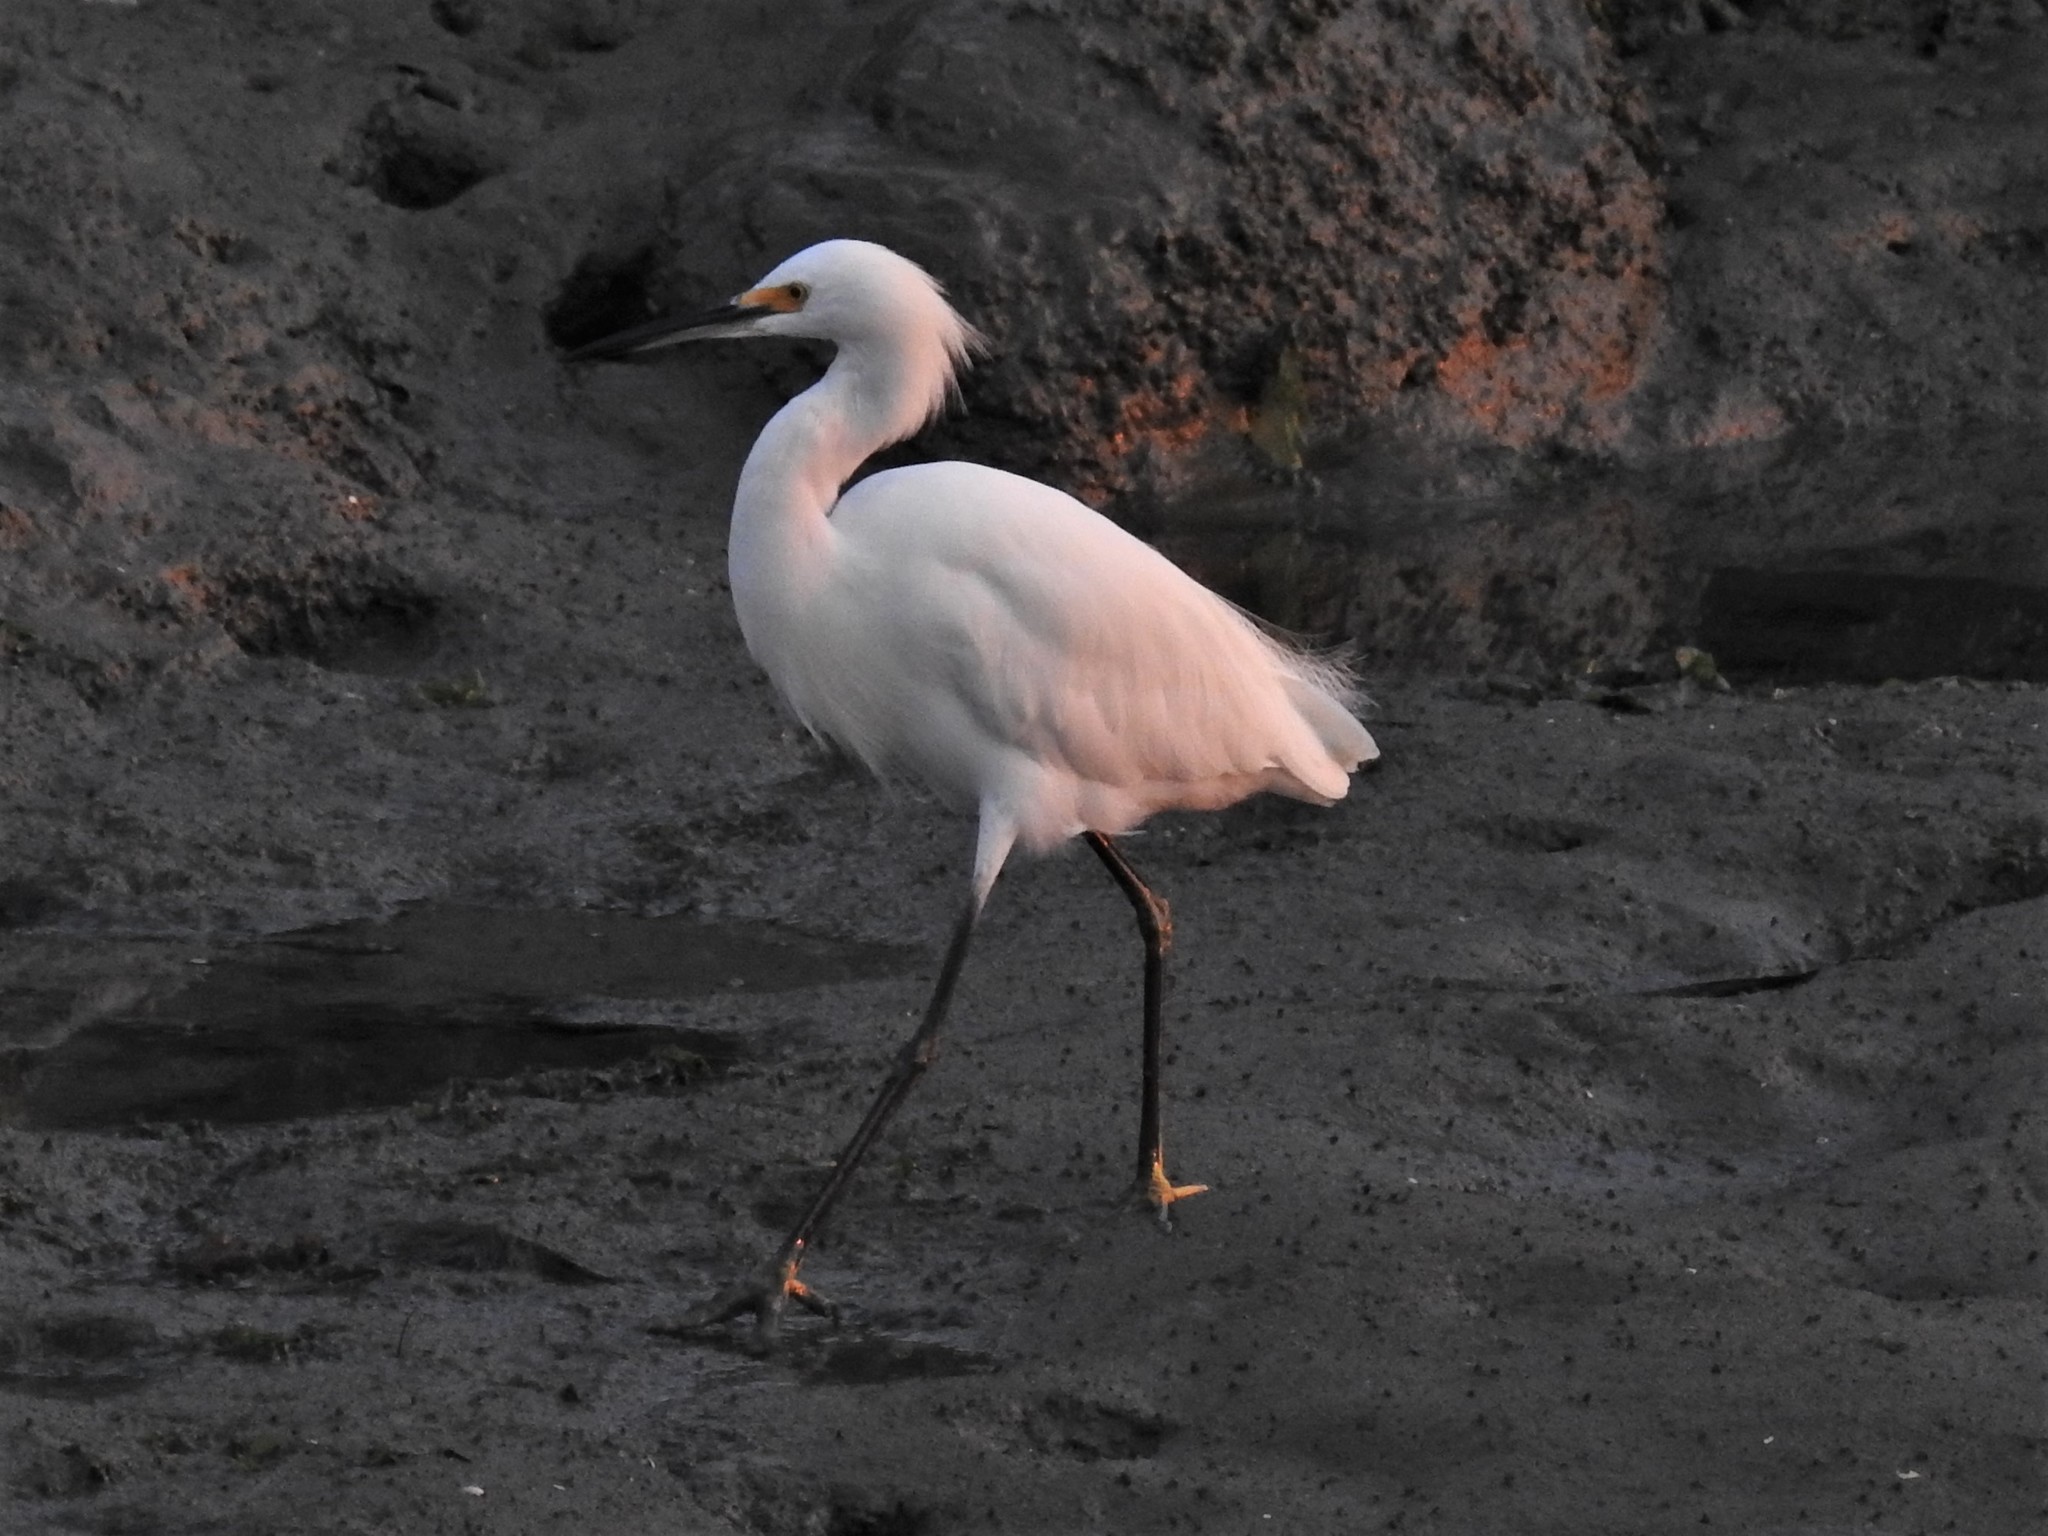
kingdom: Animalia
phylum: Chordata
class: Aves
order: Pelecaniformes
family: Ardeidae
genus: Egretta
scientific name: Egretta thula
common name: Snowy egret
